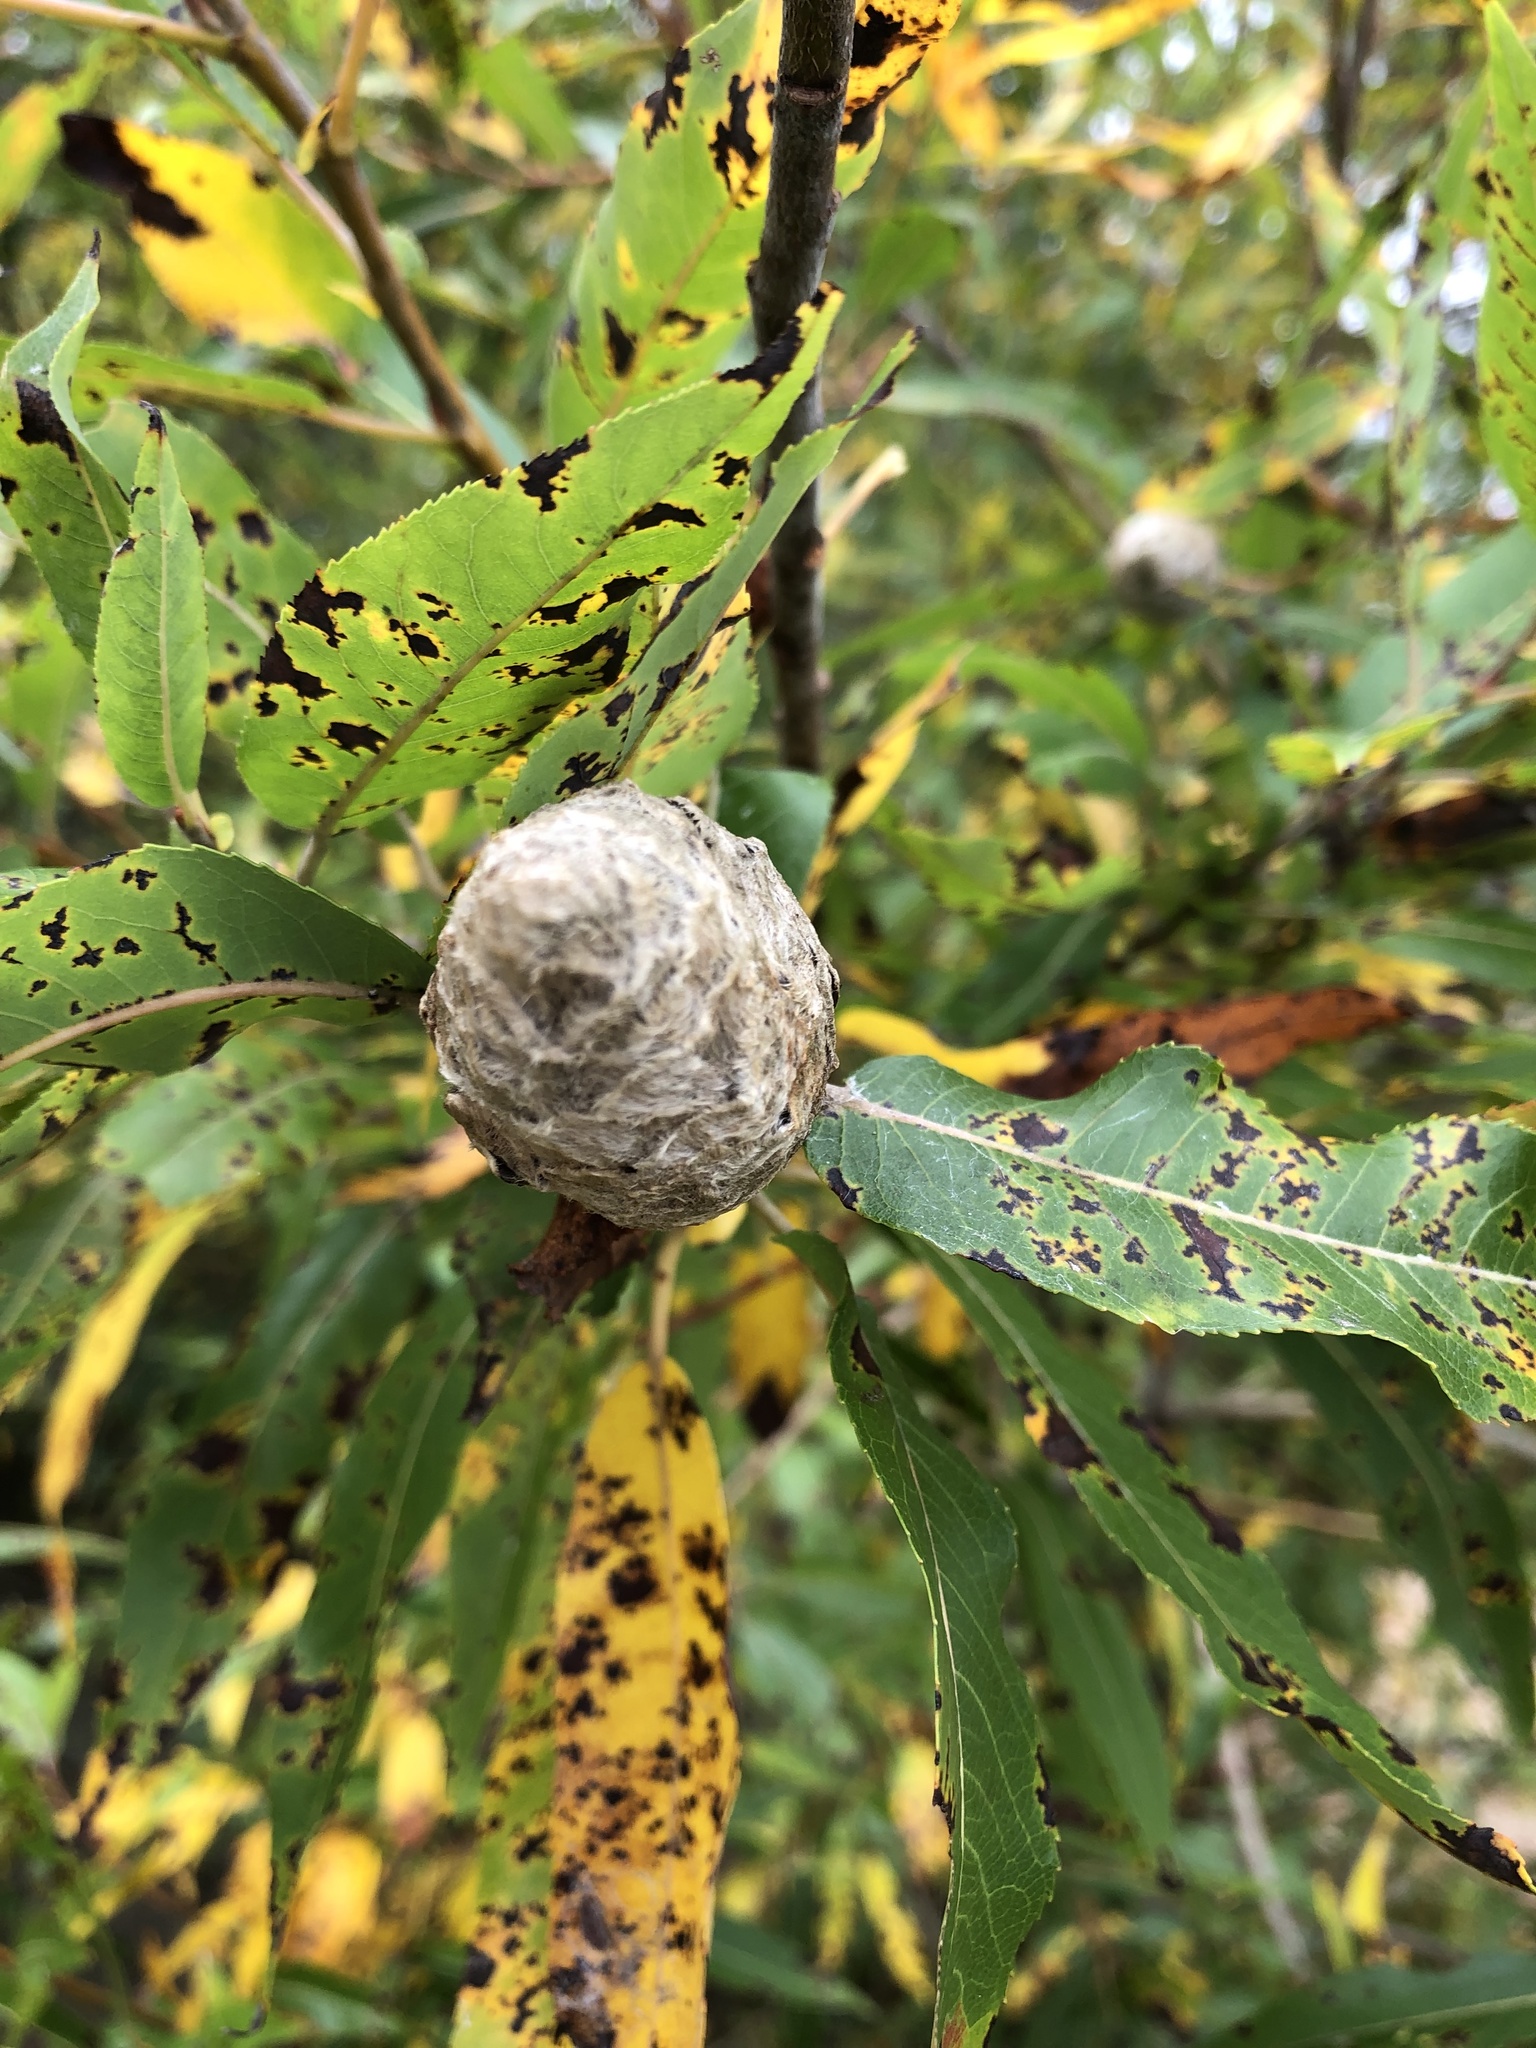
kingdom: Animalia
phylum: Arthropoda
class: Insecta
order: Diptera
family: Cecidomyiidae
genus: Rabdophaga
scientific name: Rabdophaga strobiloides
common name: Willow pinecone gall midge
